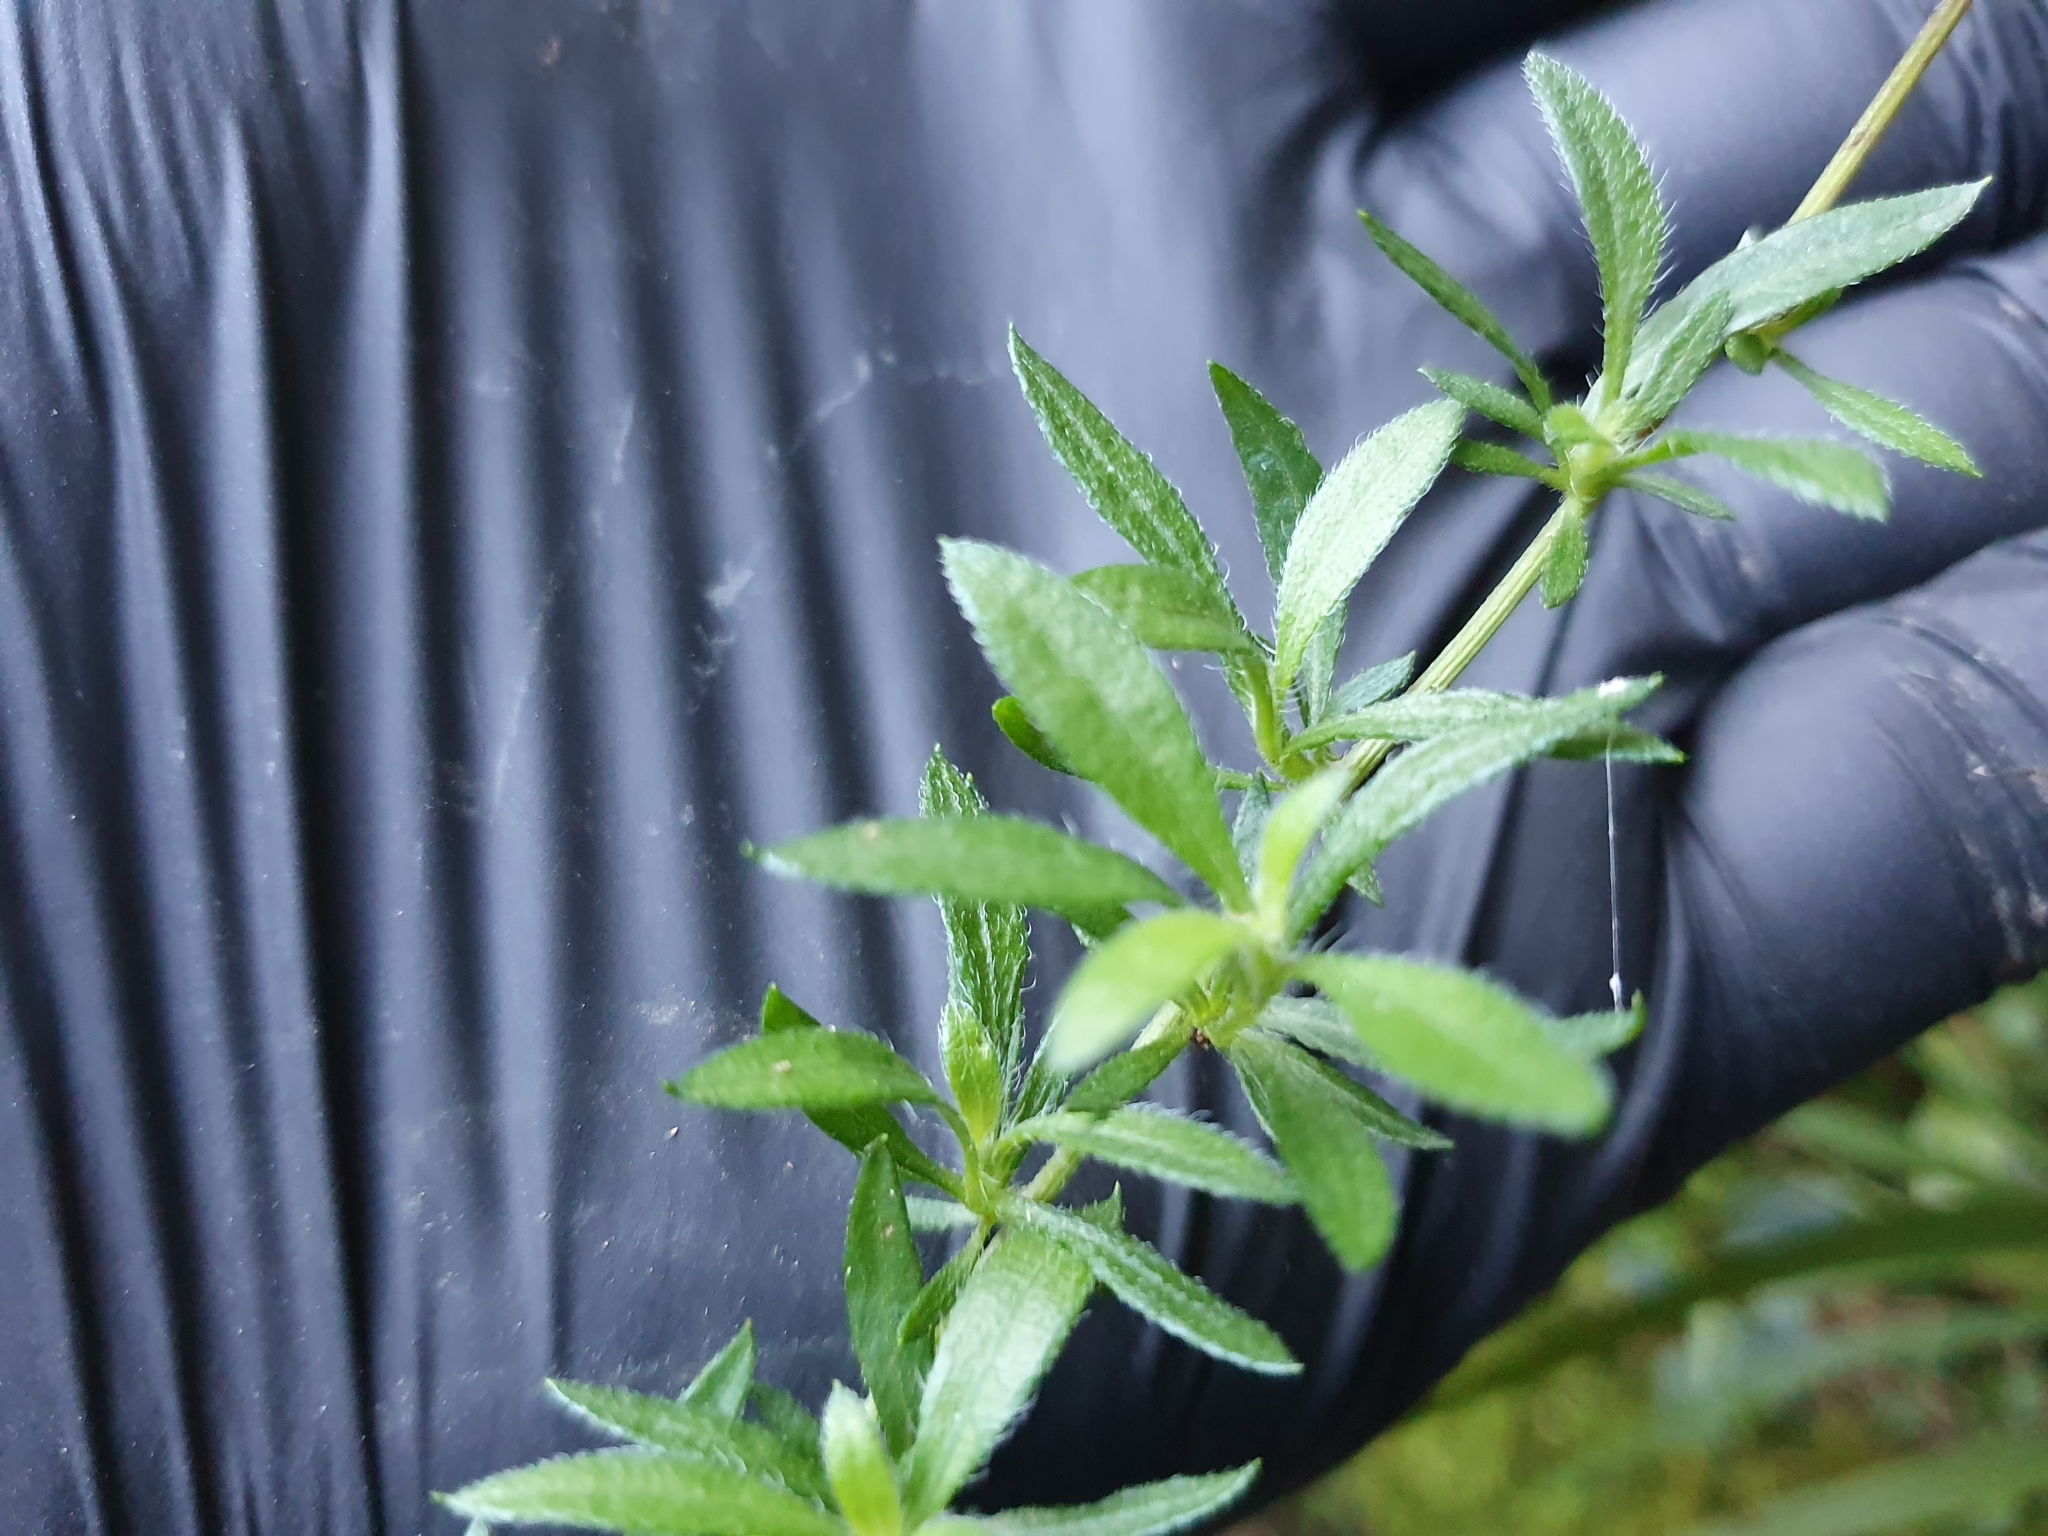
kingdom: Plantae
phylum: Tracheophyta
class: Magnoliopsida
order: Asterales
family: Asteraceae
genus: Erigeron
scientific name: Erigeron karvinskianus
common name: Mexican fleabane
